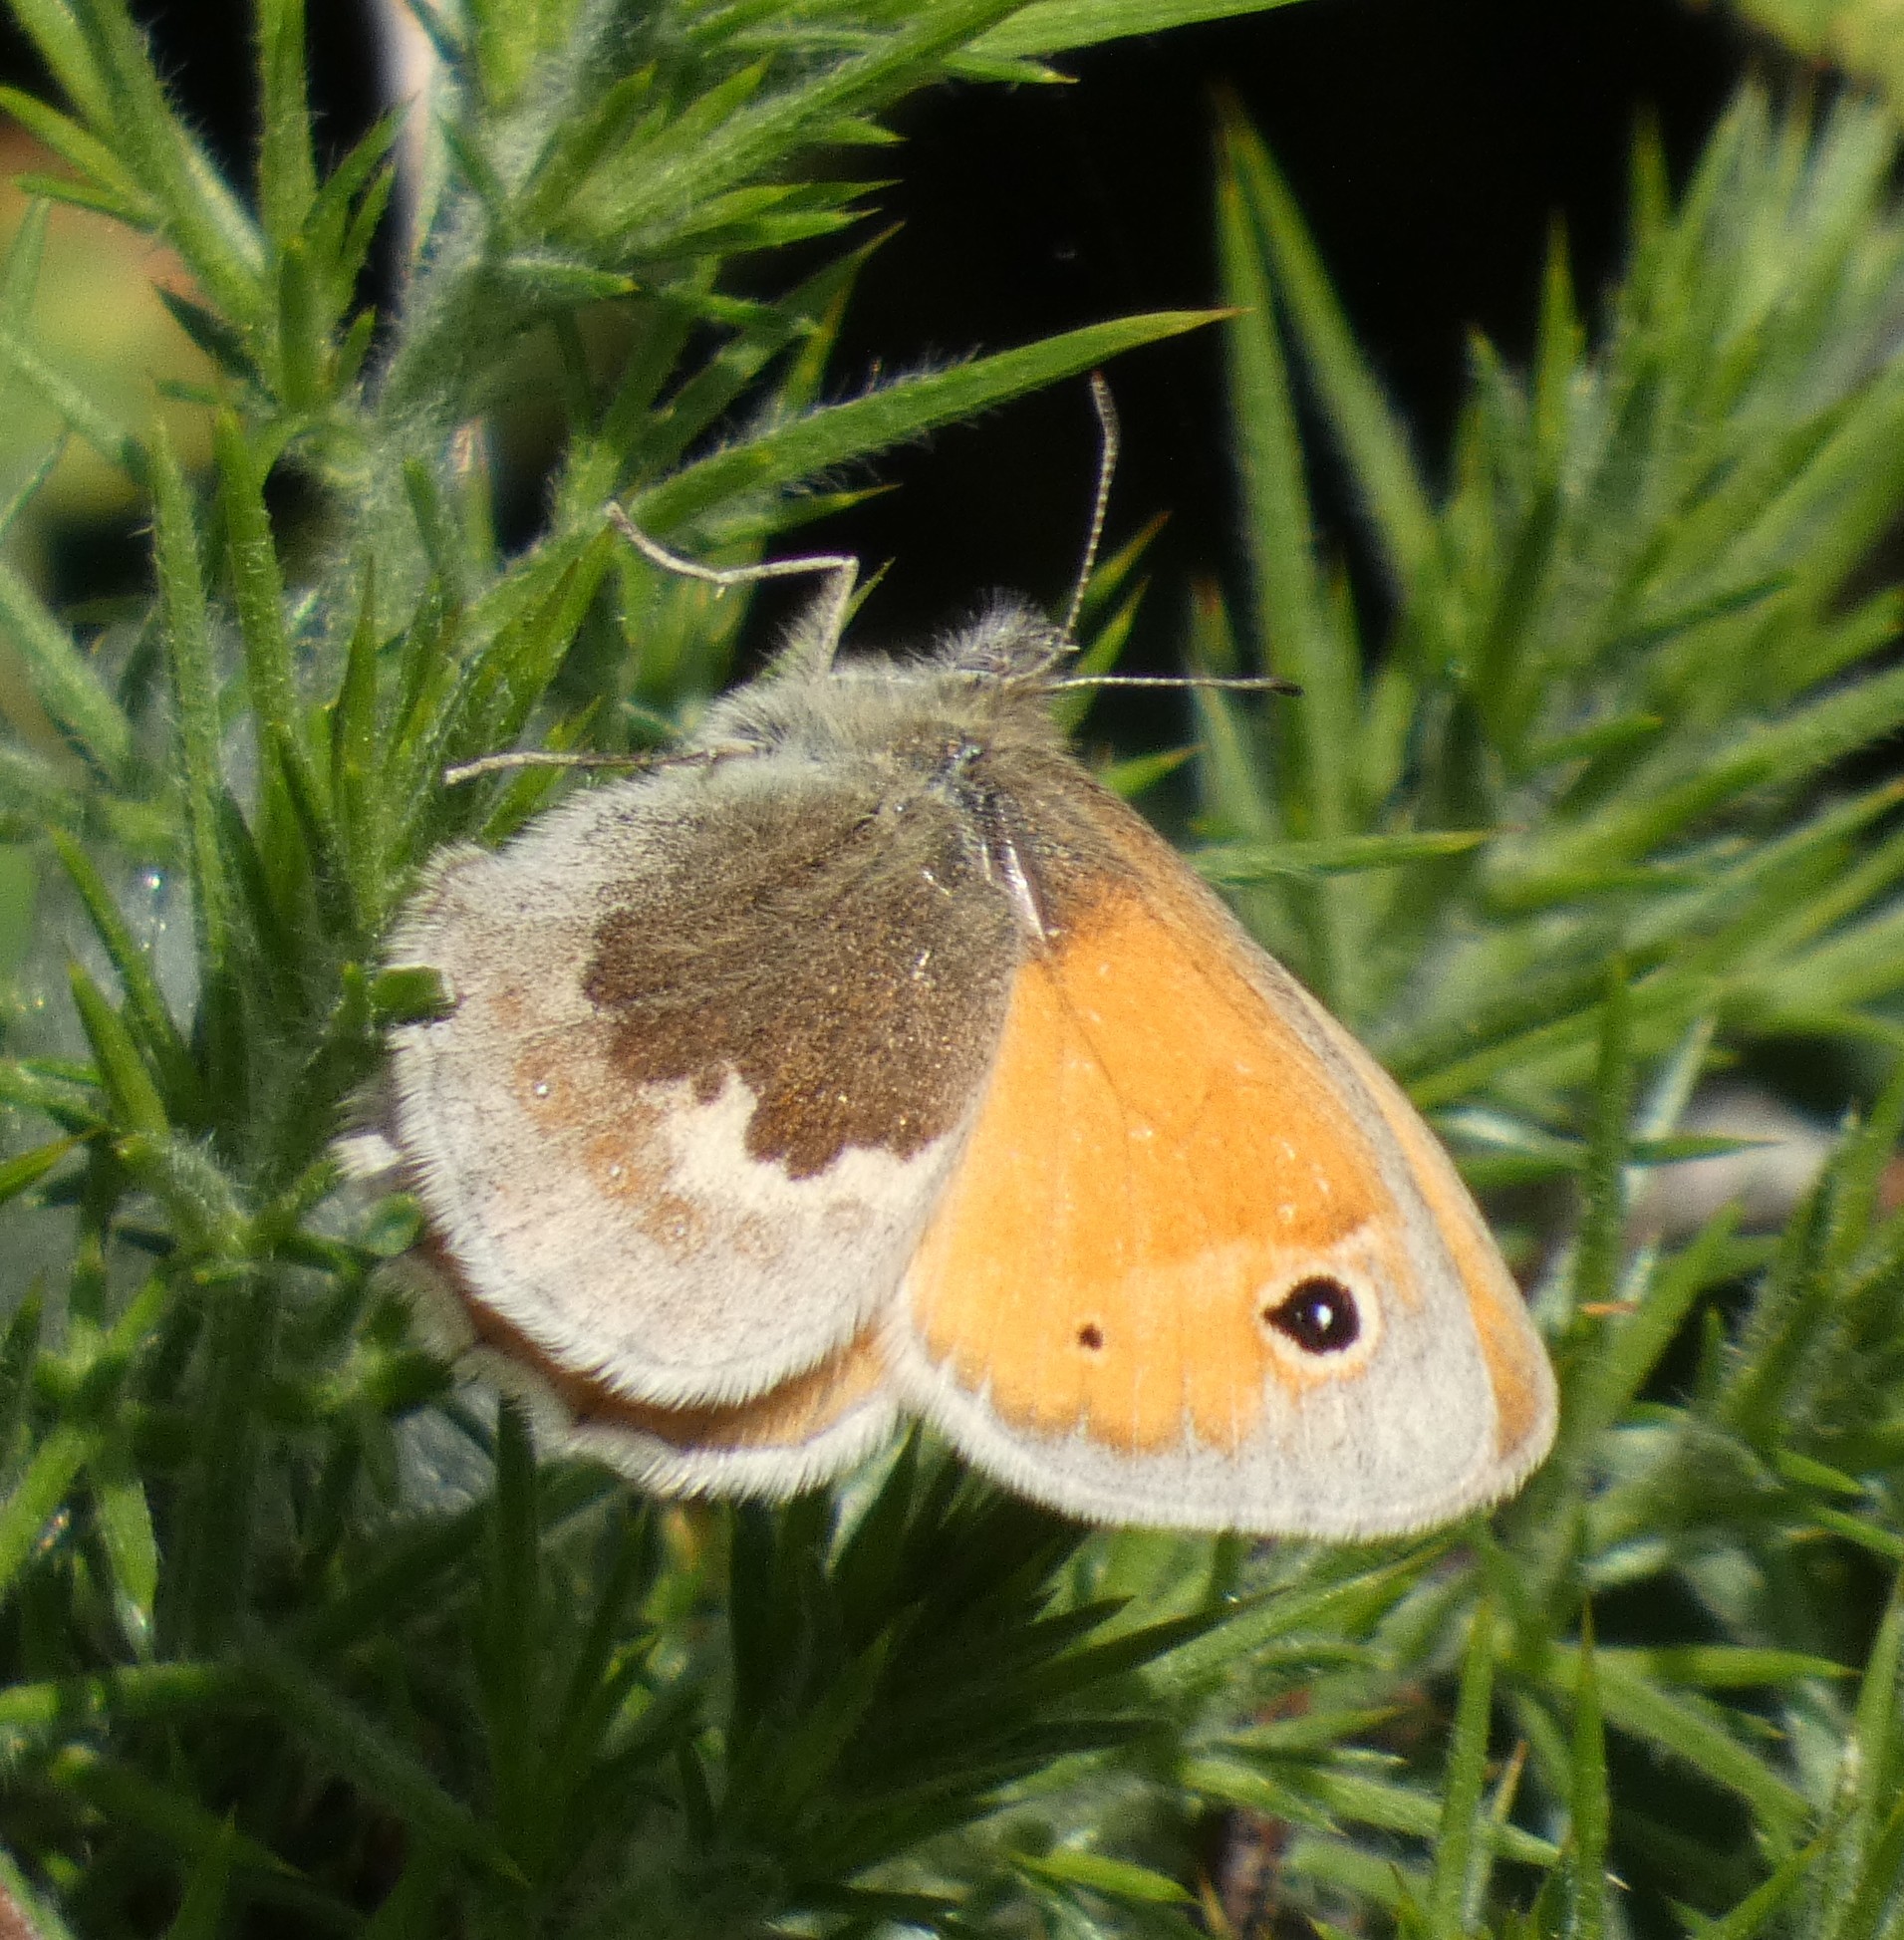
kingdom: Animalia
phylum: Arthropoda
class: Insecta
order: Lepidoptera
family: Nymphalidae
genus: Coenonympha
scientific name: Coenonympha pamphilus
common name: Small heath
